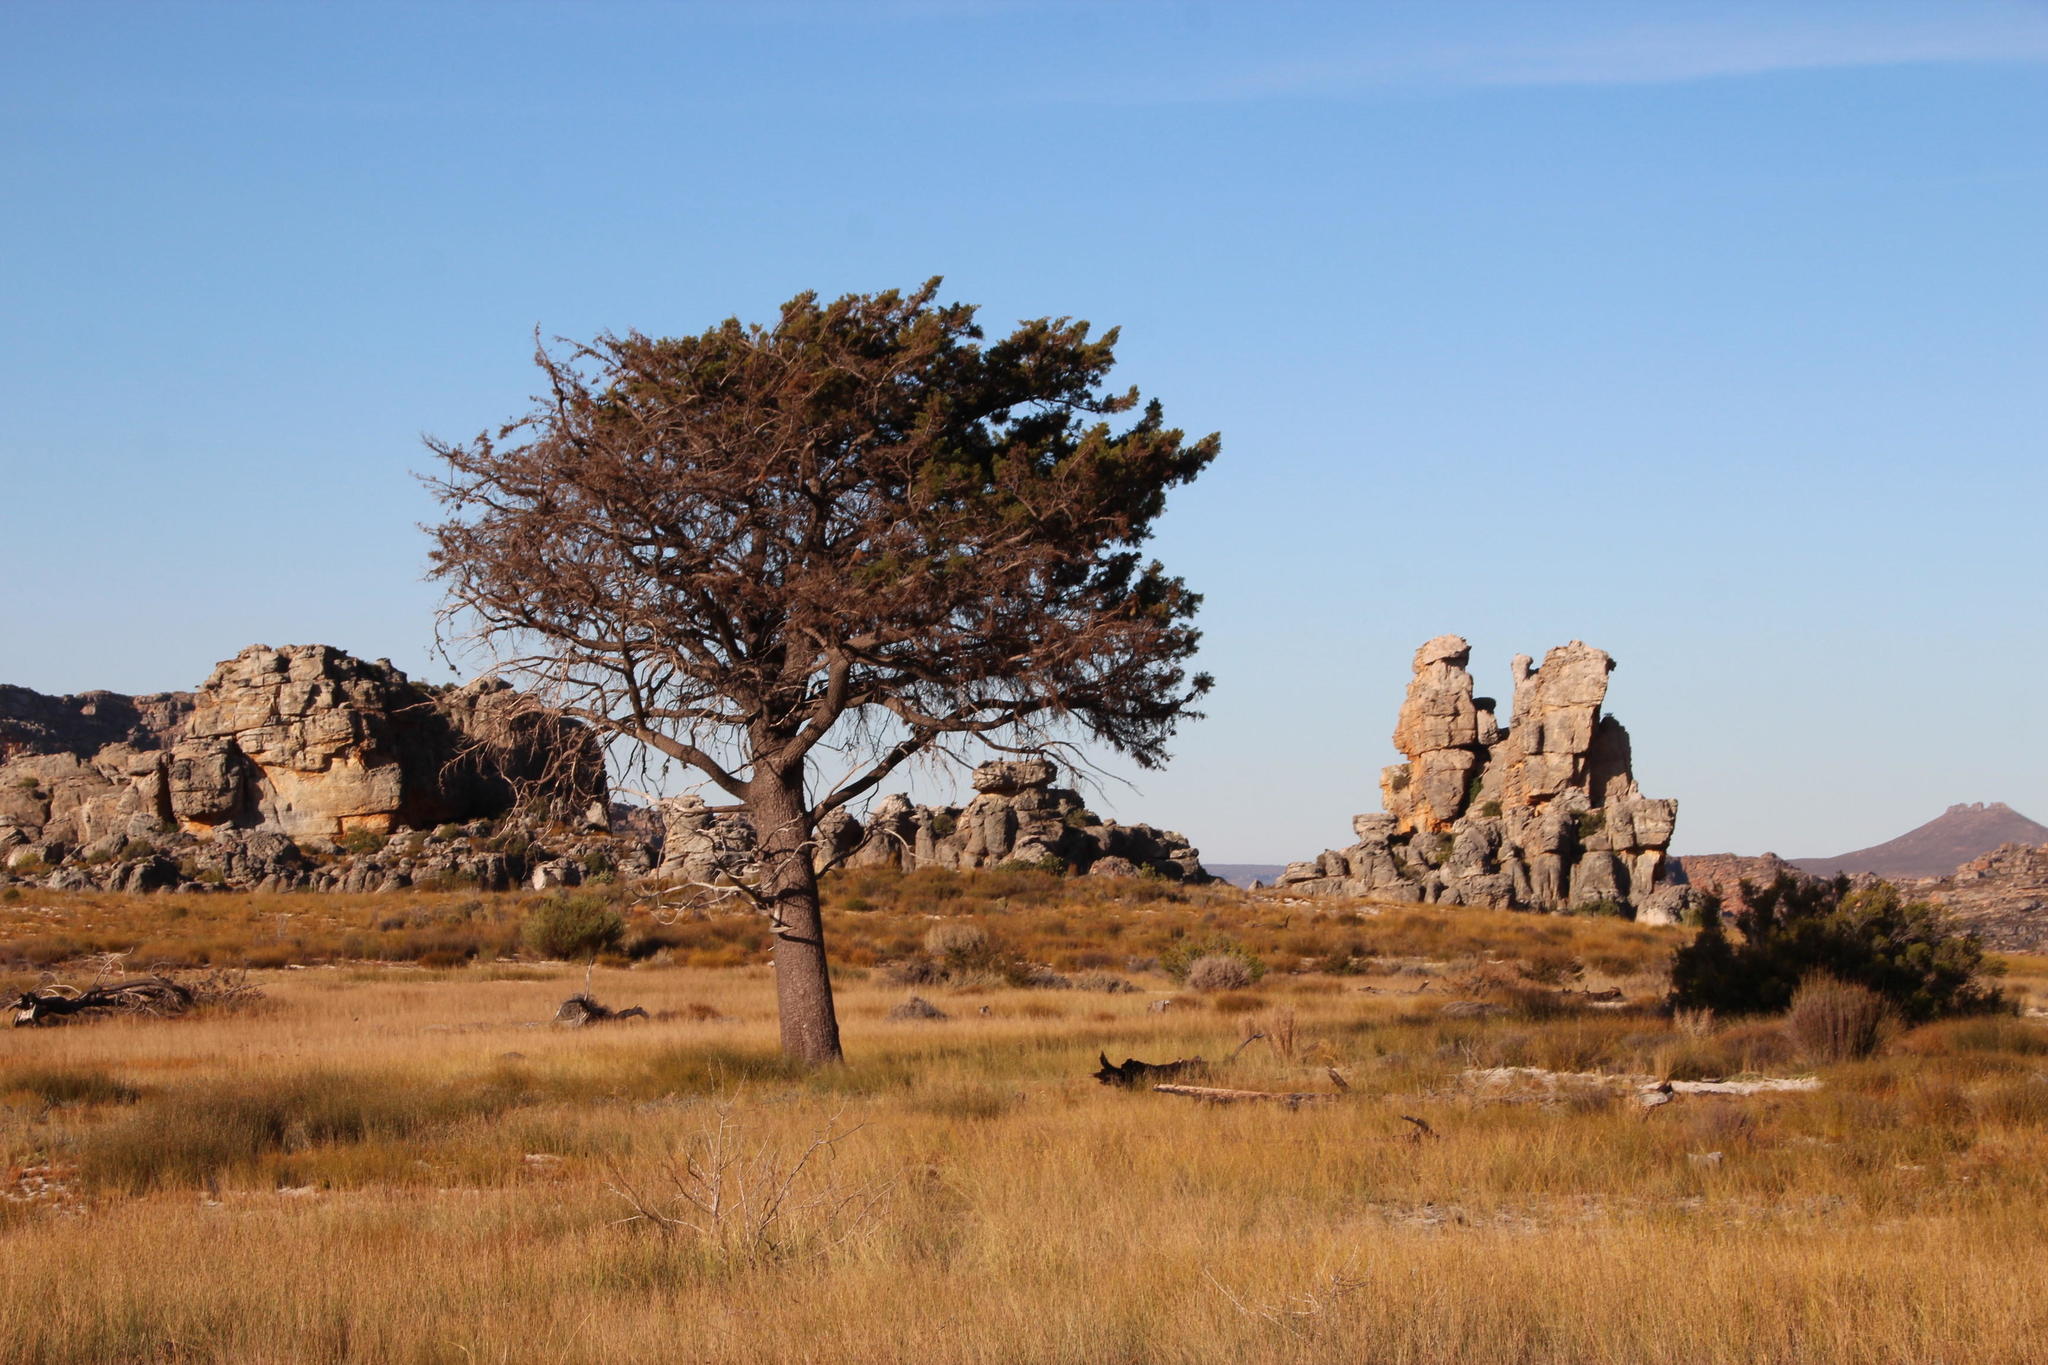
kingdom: Plantae
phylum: Tracheophyta
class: Pinopsida
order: Pinales
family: Cupressaceae
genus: Widdringtonia
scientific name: Widdringtonia nodiflora
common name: Cape cypress
